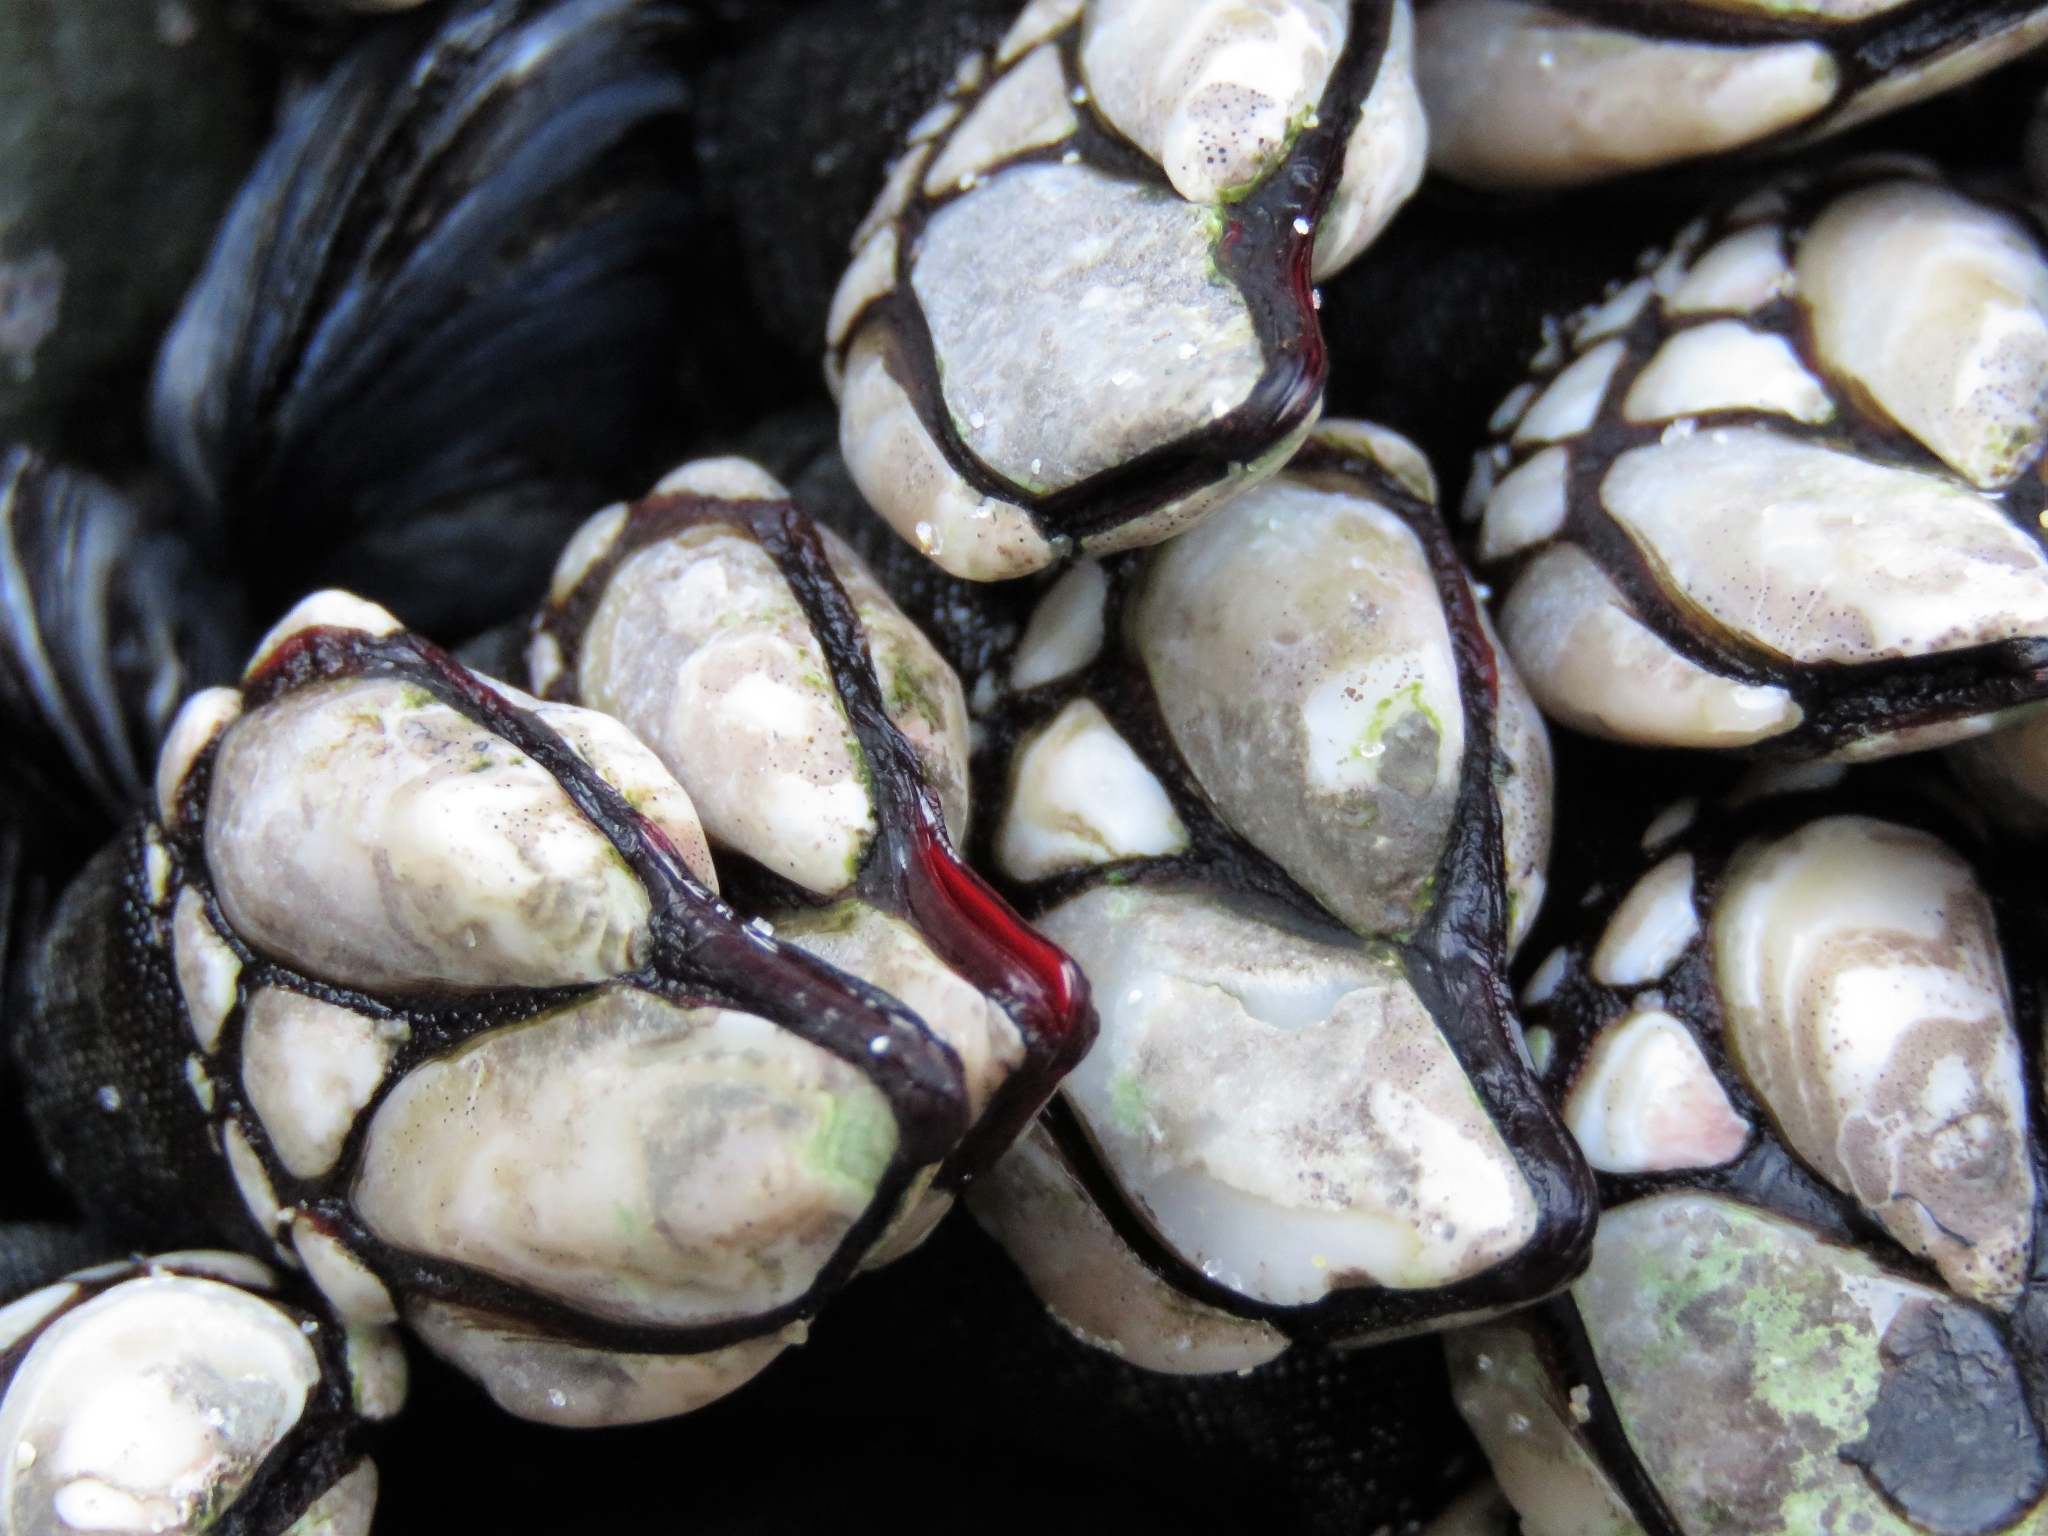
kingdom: Animalia
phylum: Arthropoda
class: Maxillopoda
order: Pedunculata
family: Pollicipedidae
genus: Pollicipes
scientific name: Pollicipes pollicipes
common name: Gooseneck barnacle
